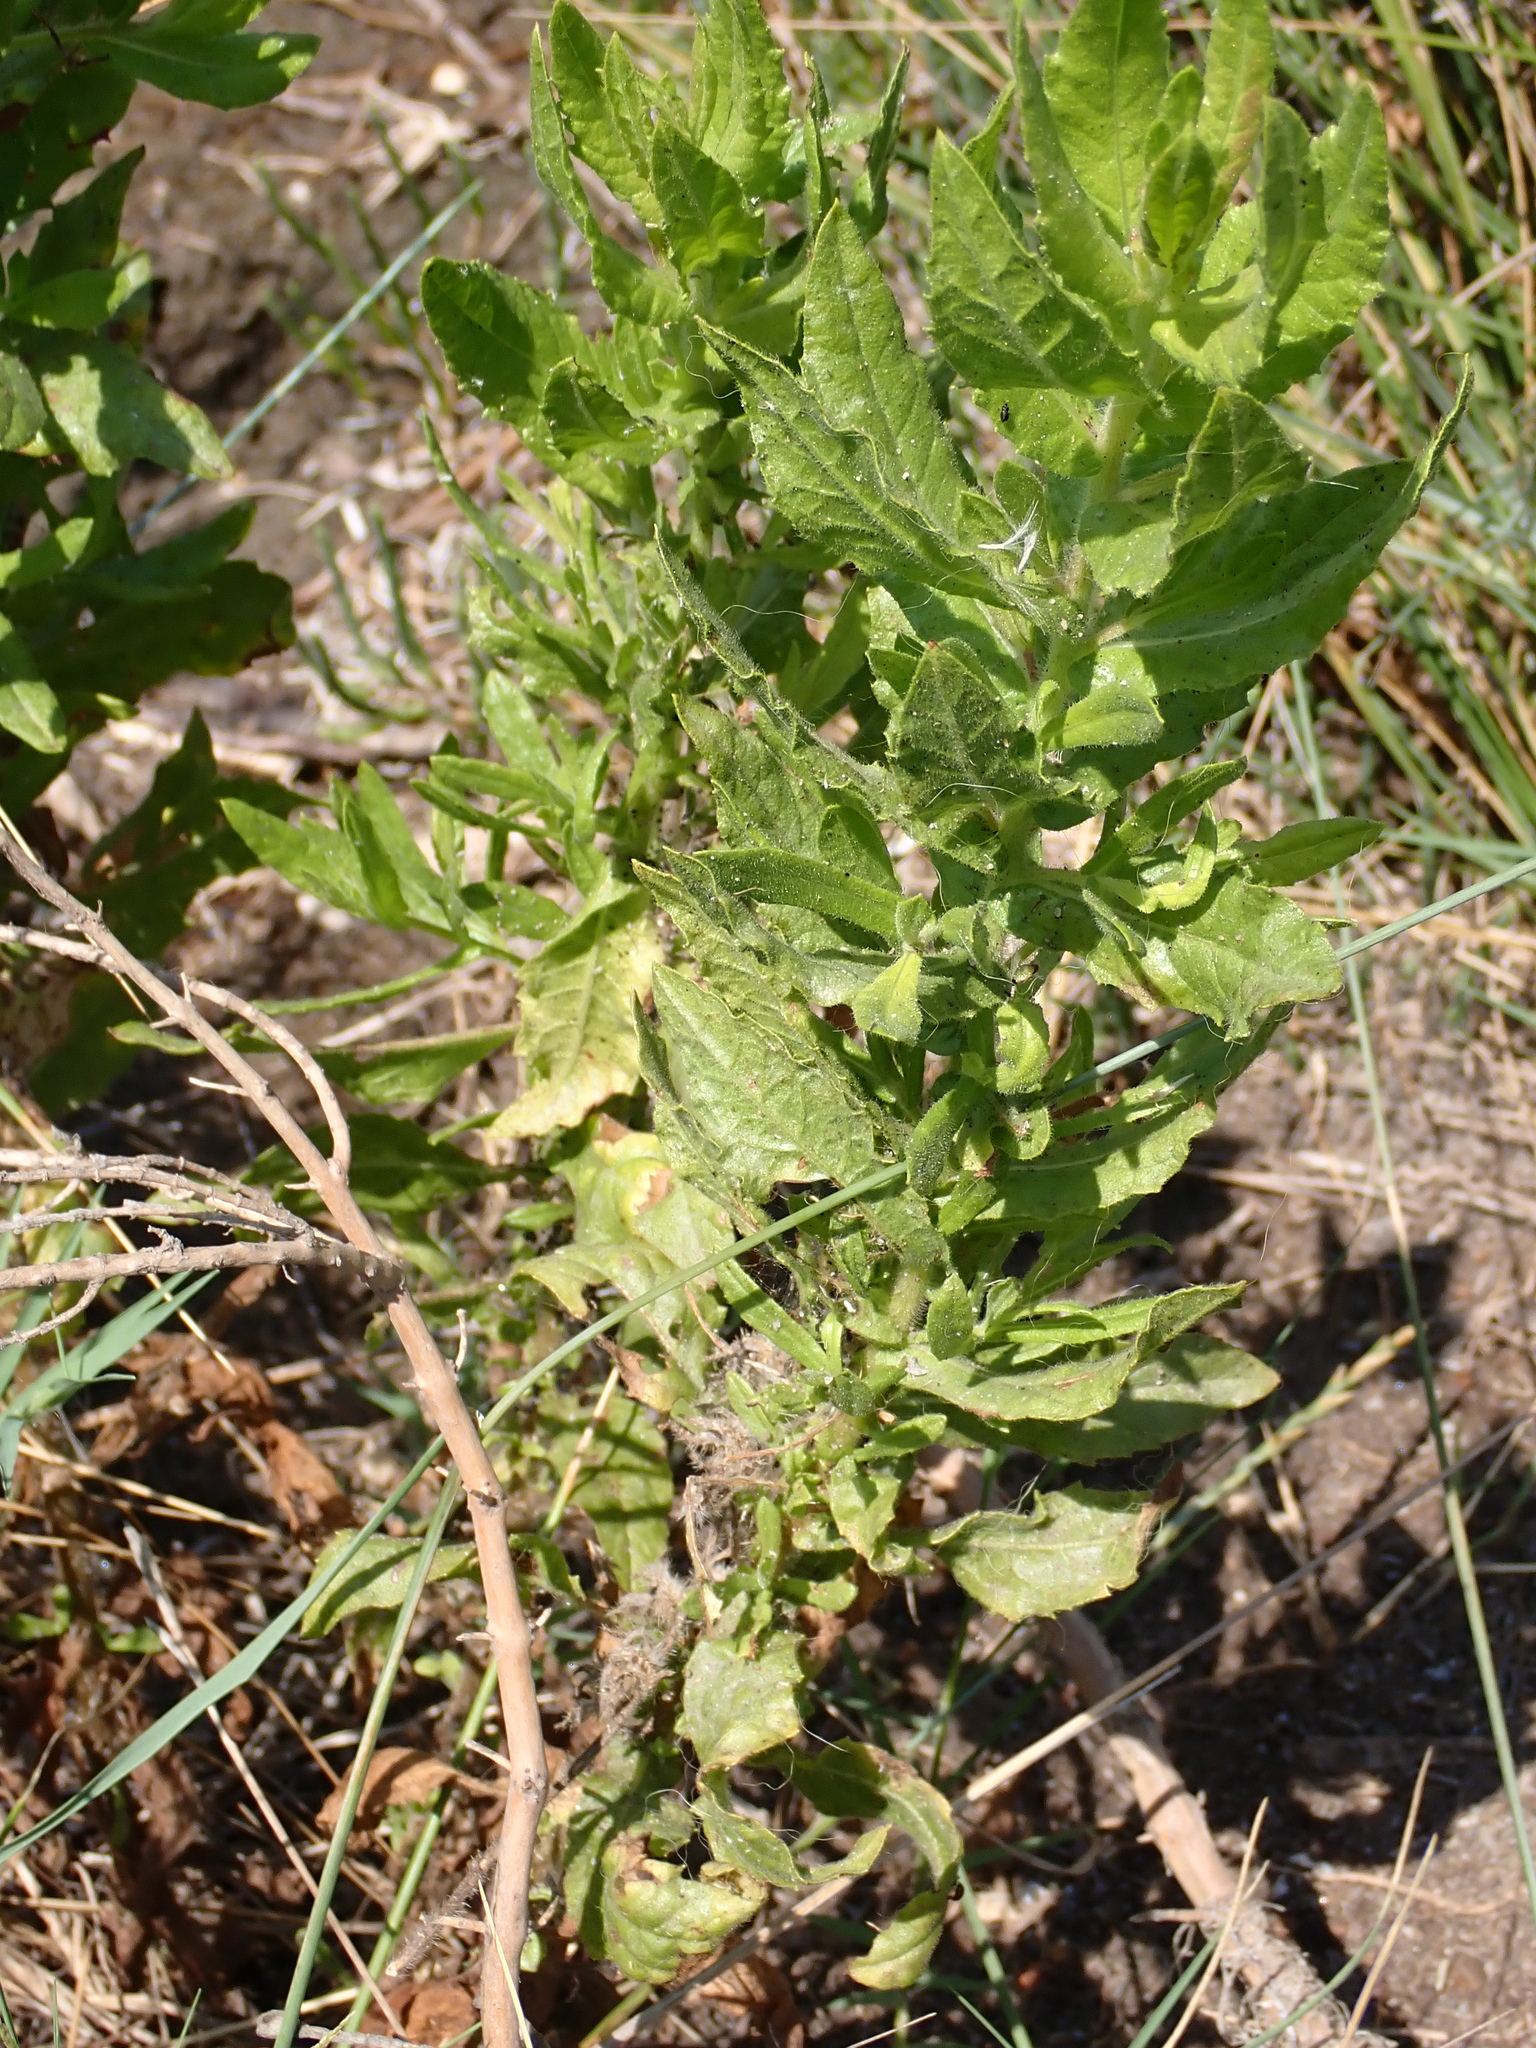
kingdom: Plantae
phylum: Tracheophyta
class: Magnoliopsida
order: Asterales
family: Asteraceae
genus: Dittrichia
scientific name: Dittrichia viscosa
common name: Woody fleabane
